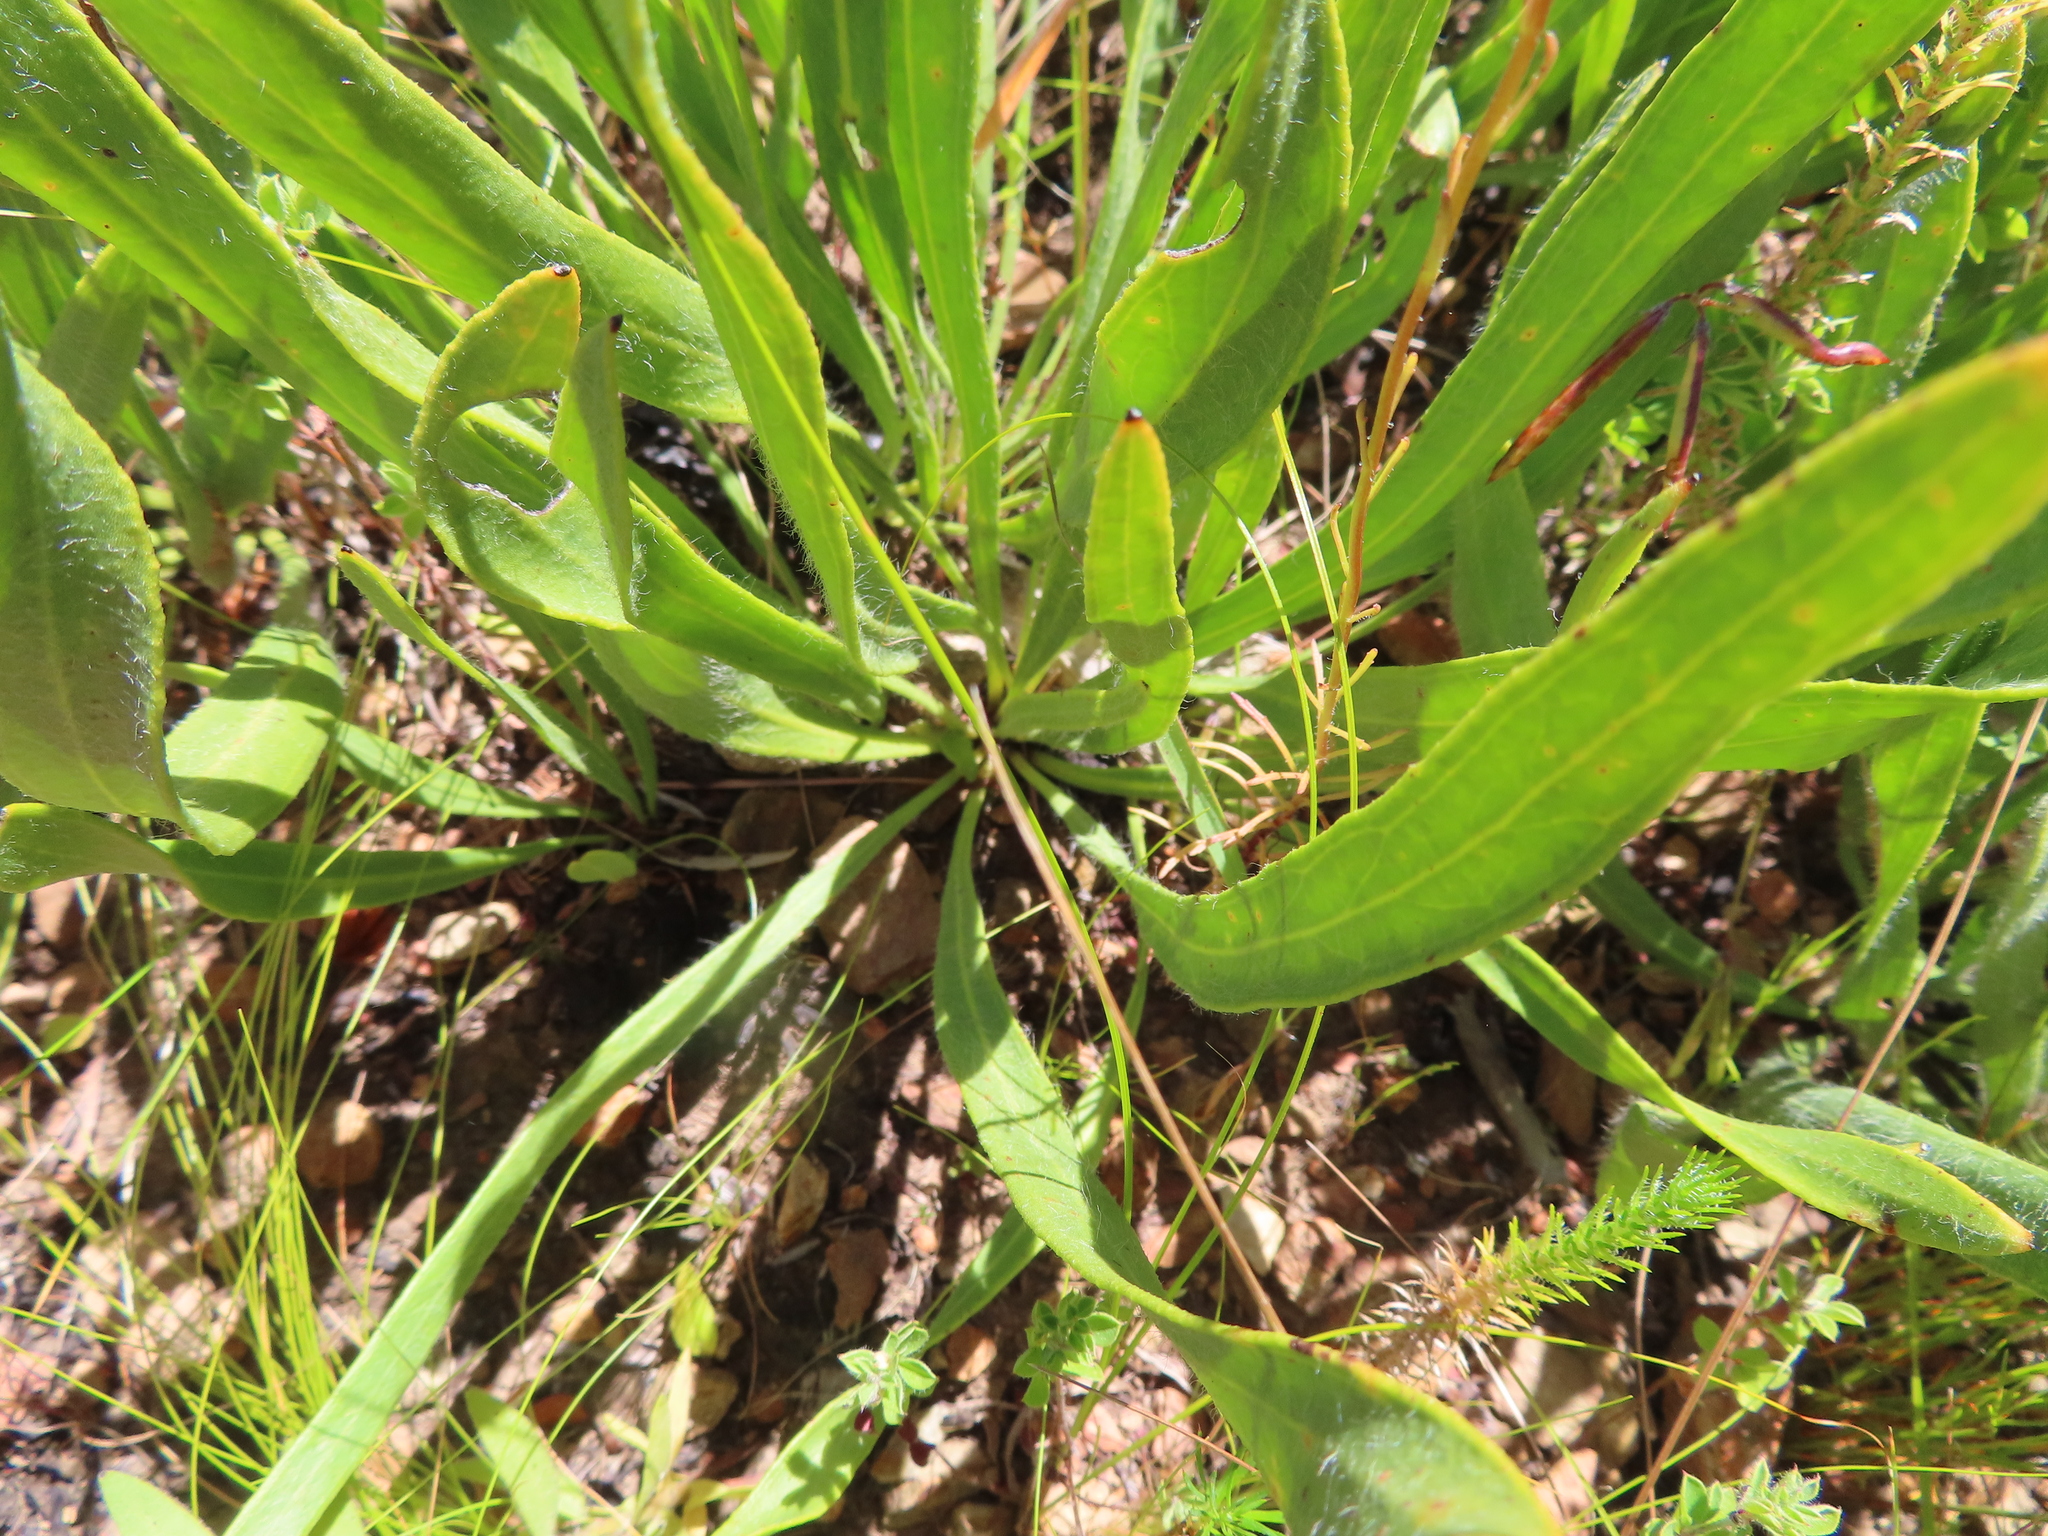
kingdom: Plantae
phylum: Tracheophyta
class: Magnoliopsida
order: Proteales
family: Proteaceae
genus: Protea
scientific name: Protea scabra
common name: Sandpaper-leaf sugarbush
